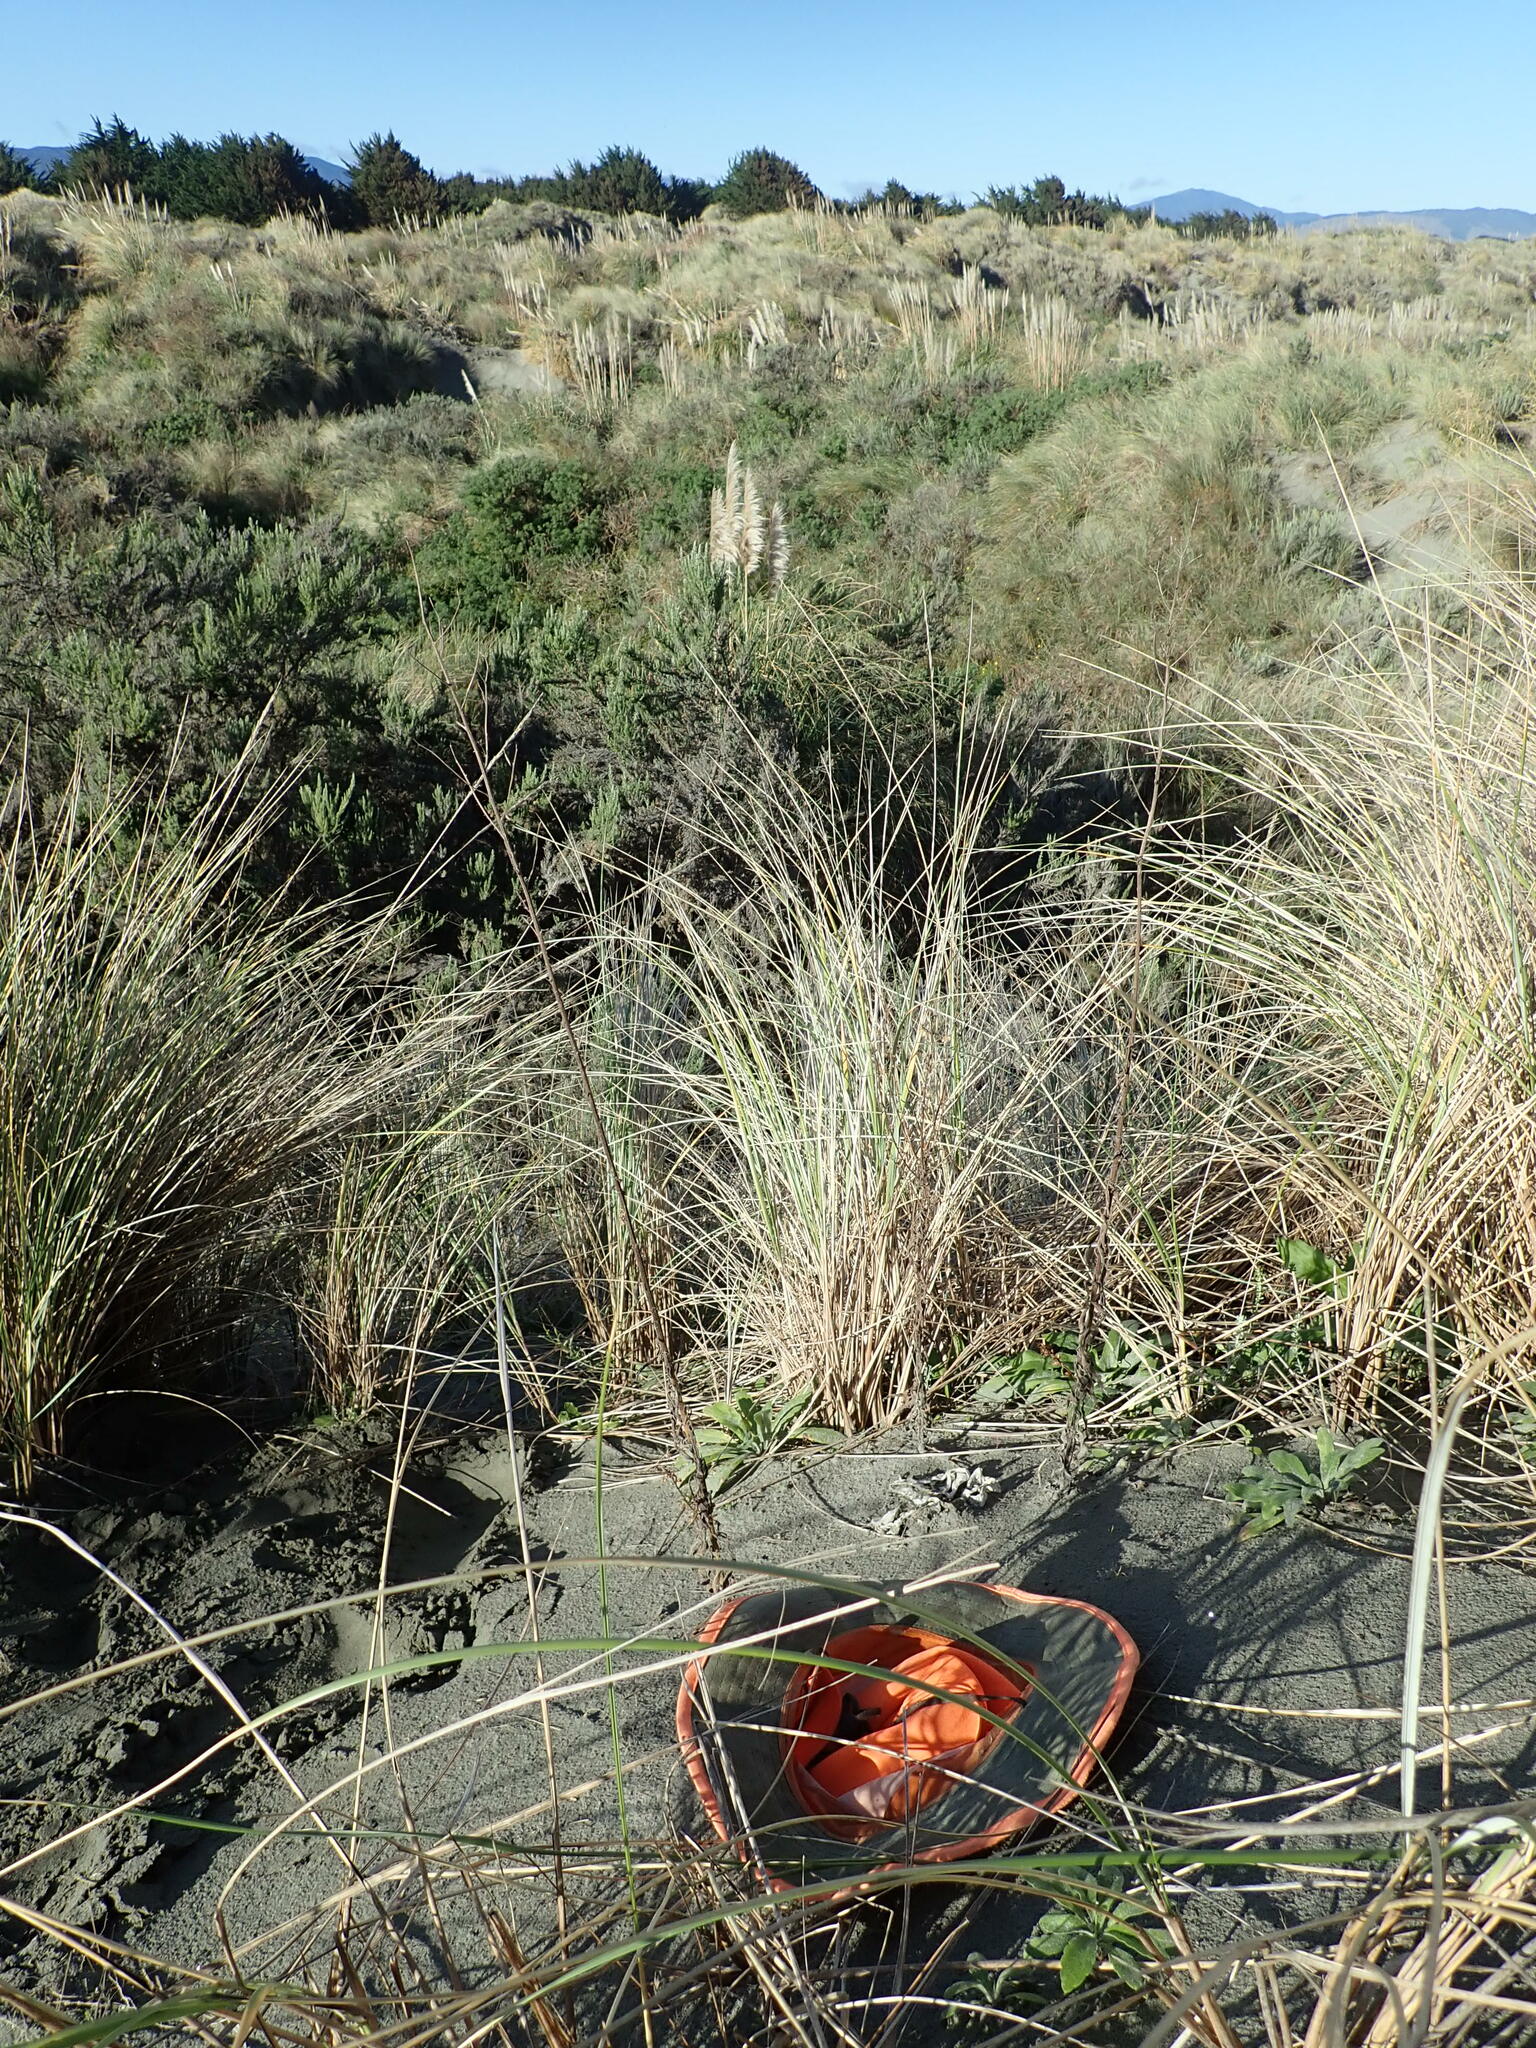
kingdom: Fungi
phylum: Basidiomycota
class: Agaricomycetes
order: Phallales
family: Phallaceae
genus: Ileodictyon
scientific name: Ileodictyon cibarium
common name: Basket fungus
